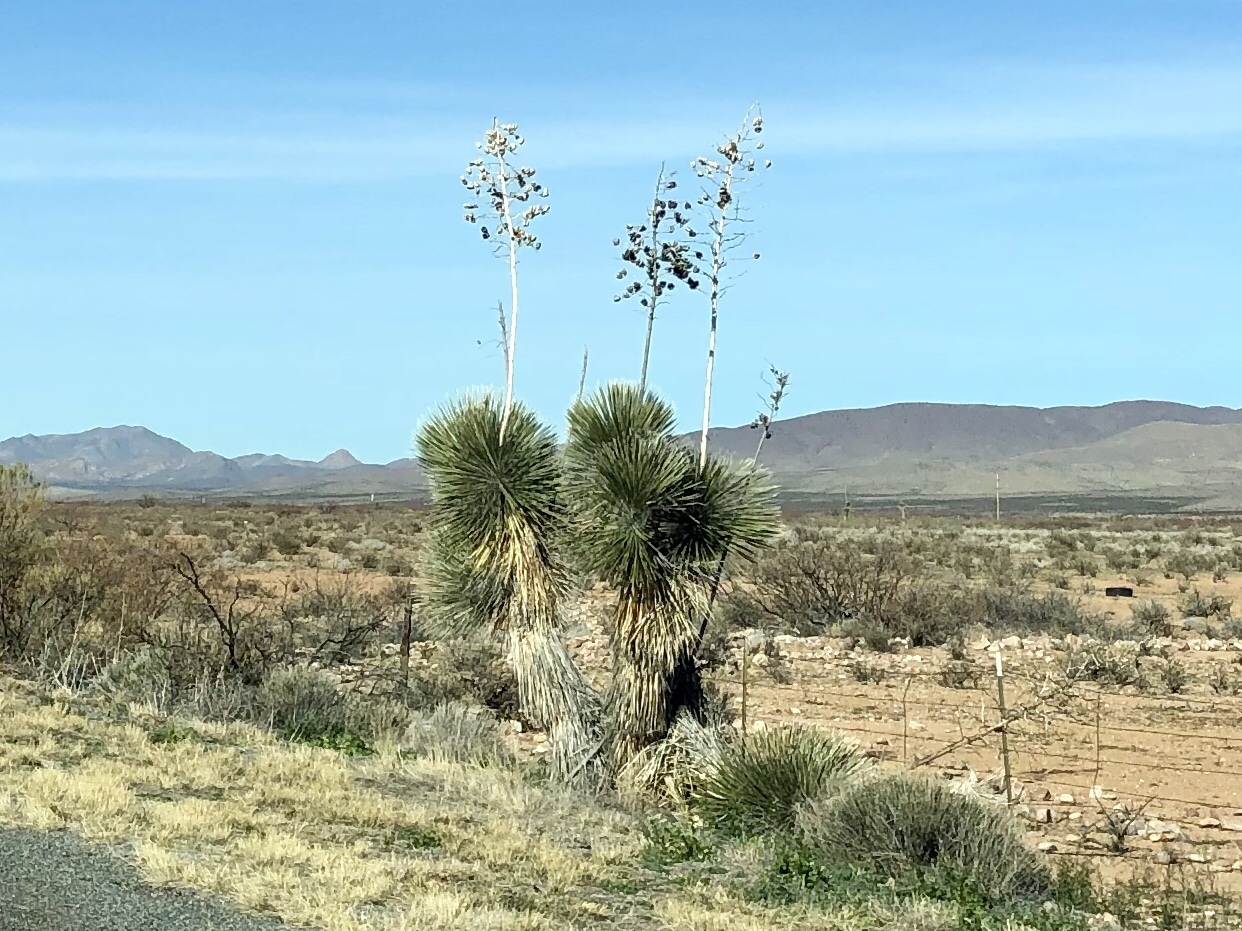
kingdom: Plantae
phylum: Tracheophyta
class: Liliopsida
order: Asparagales
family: Asparagaceae
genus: Yucca
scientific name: Yucca elata
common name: Palmella
